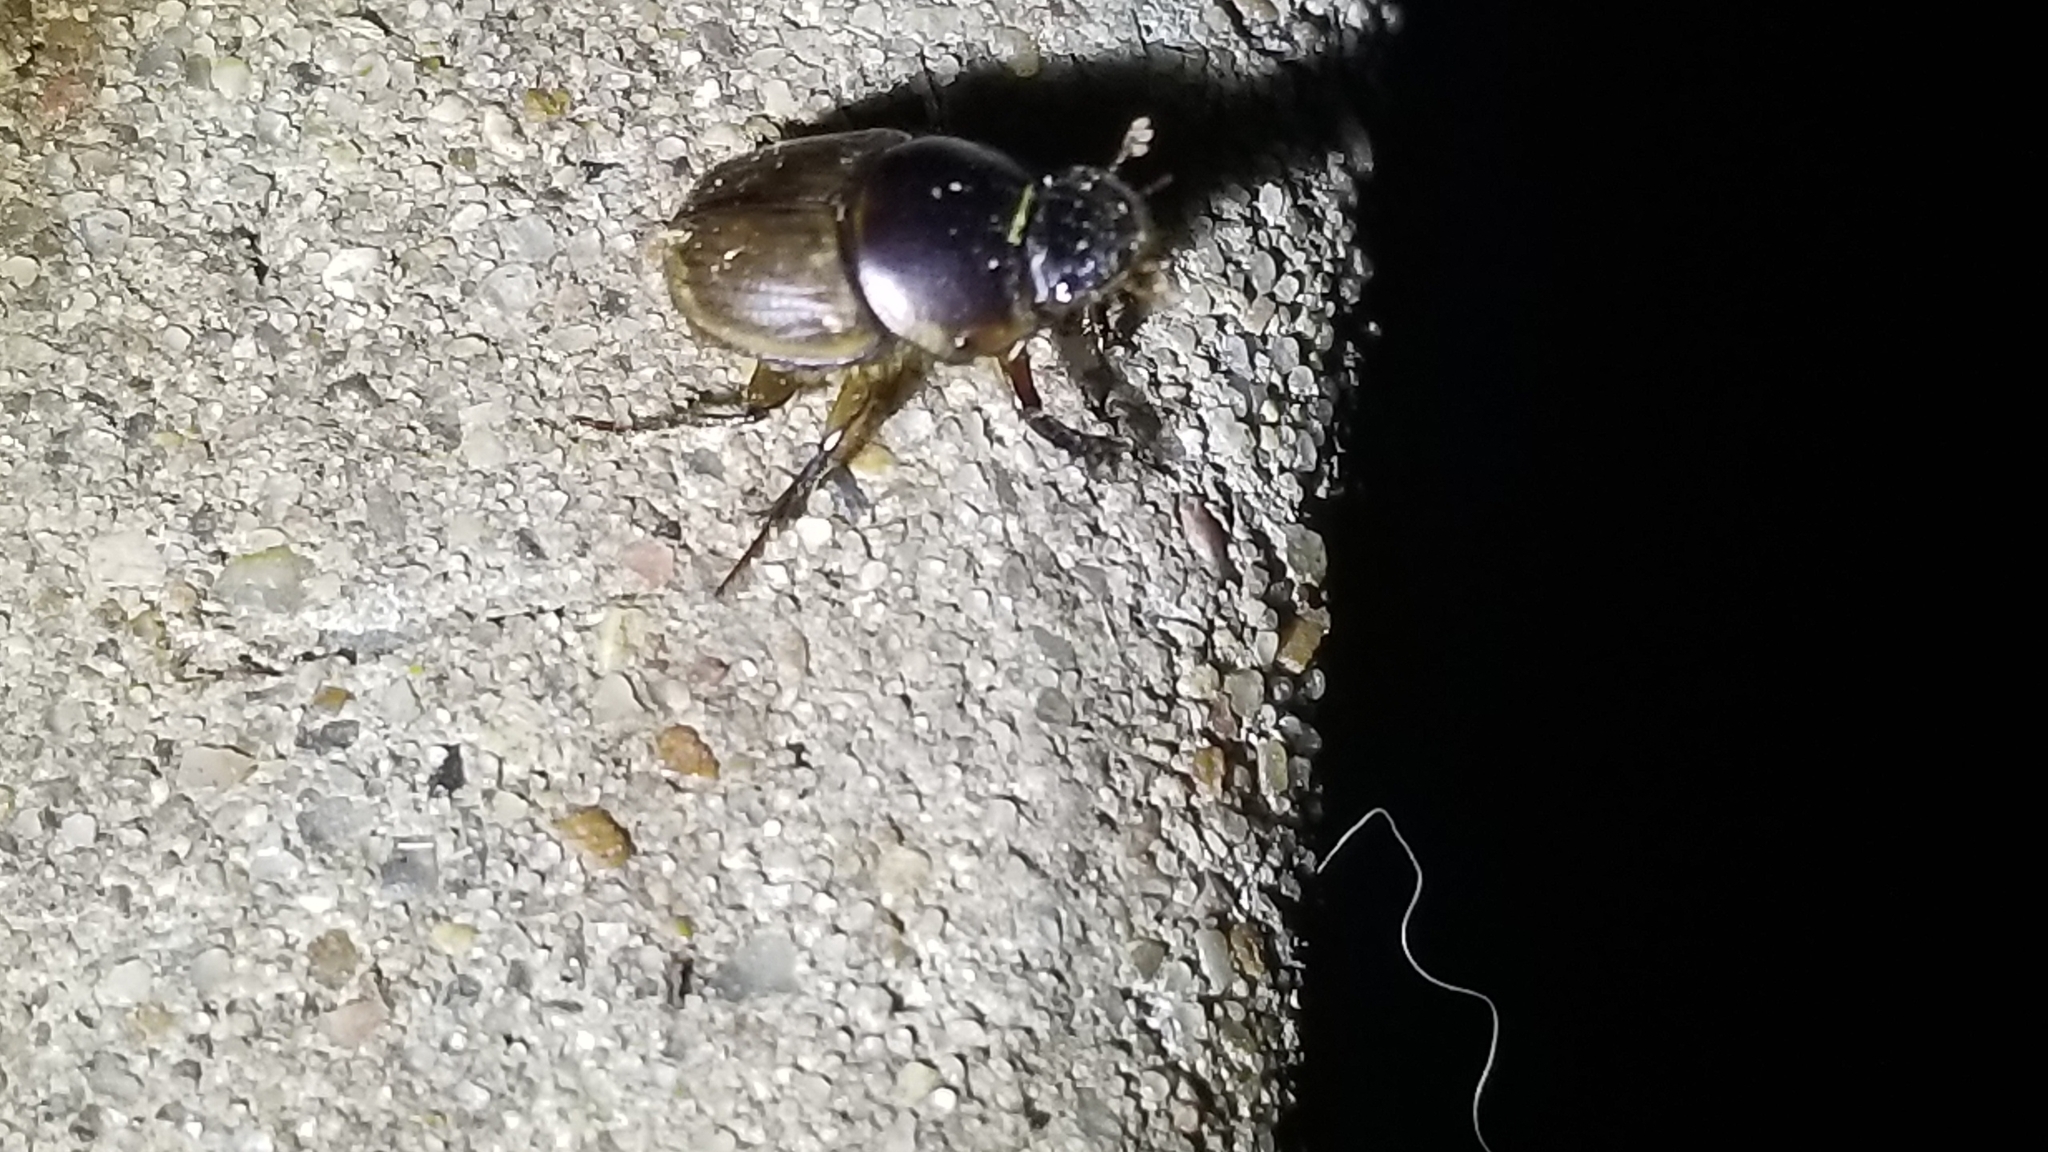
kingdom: Animalia
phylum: Arthropoda
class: Insecta
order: Coleoptera
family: Scarabaeidae
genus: Digitonthophagus
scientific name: Digitonthophagus gazella
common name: Brown dung beetle
